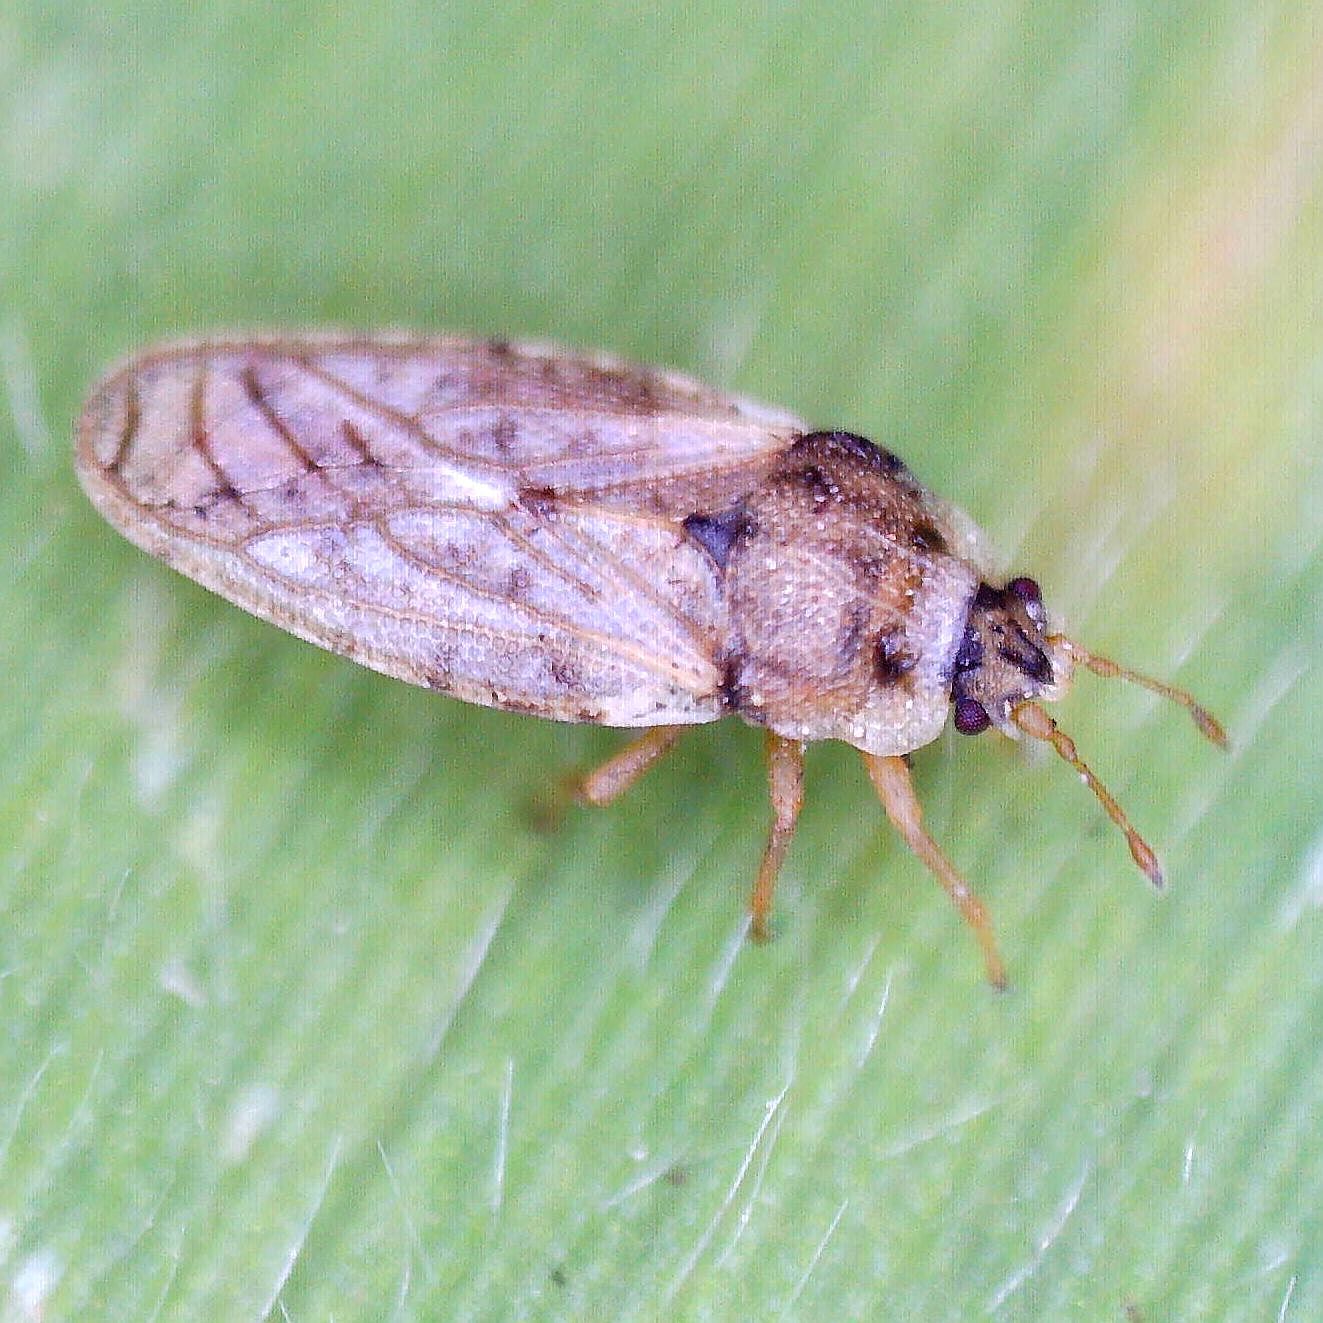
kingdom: Animalia
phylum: Arthropoda
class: Insecta
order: Hemiptera
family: Piesmatidae
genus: Piesma
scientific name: Piesma maculata
